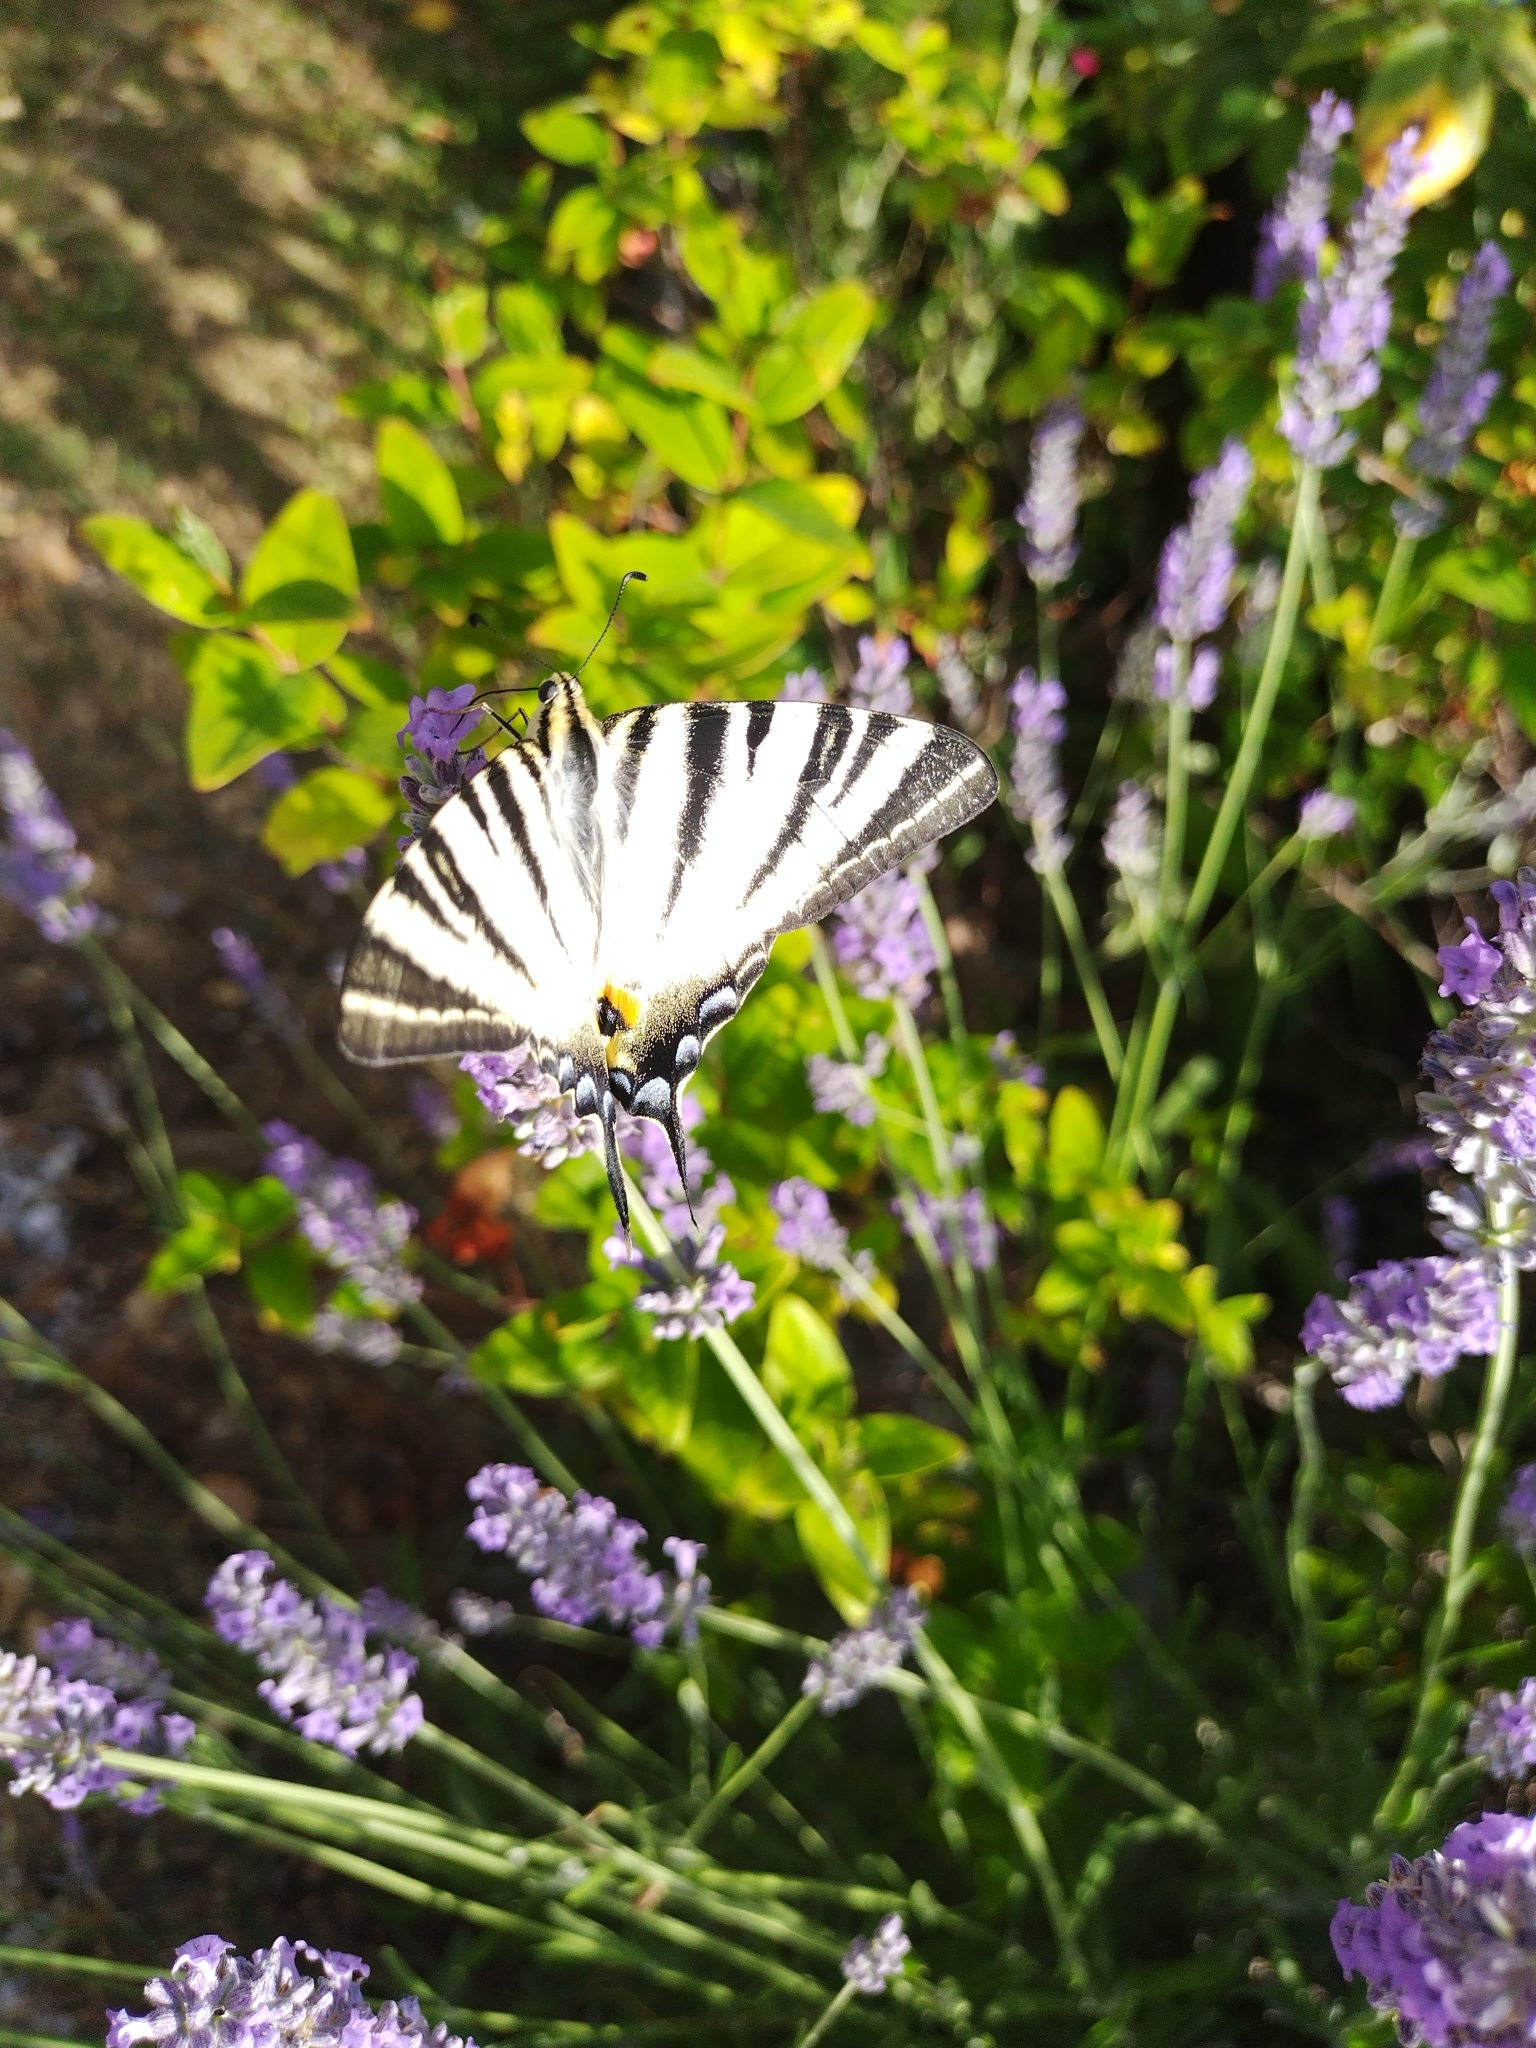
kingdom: Animalia
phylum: Arthropoda
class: Insecta
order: Lepidoptera
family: Papilionidae
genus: Iphiclides
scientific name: Iphiclides podalirius
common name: Scarce swallowtail
